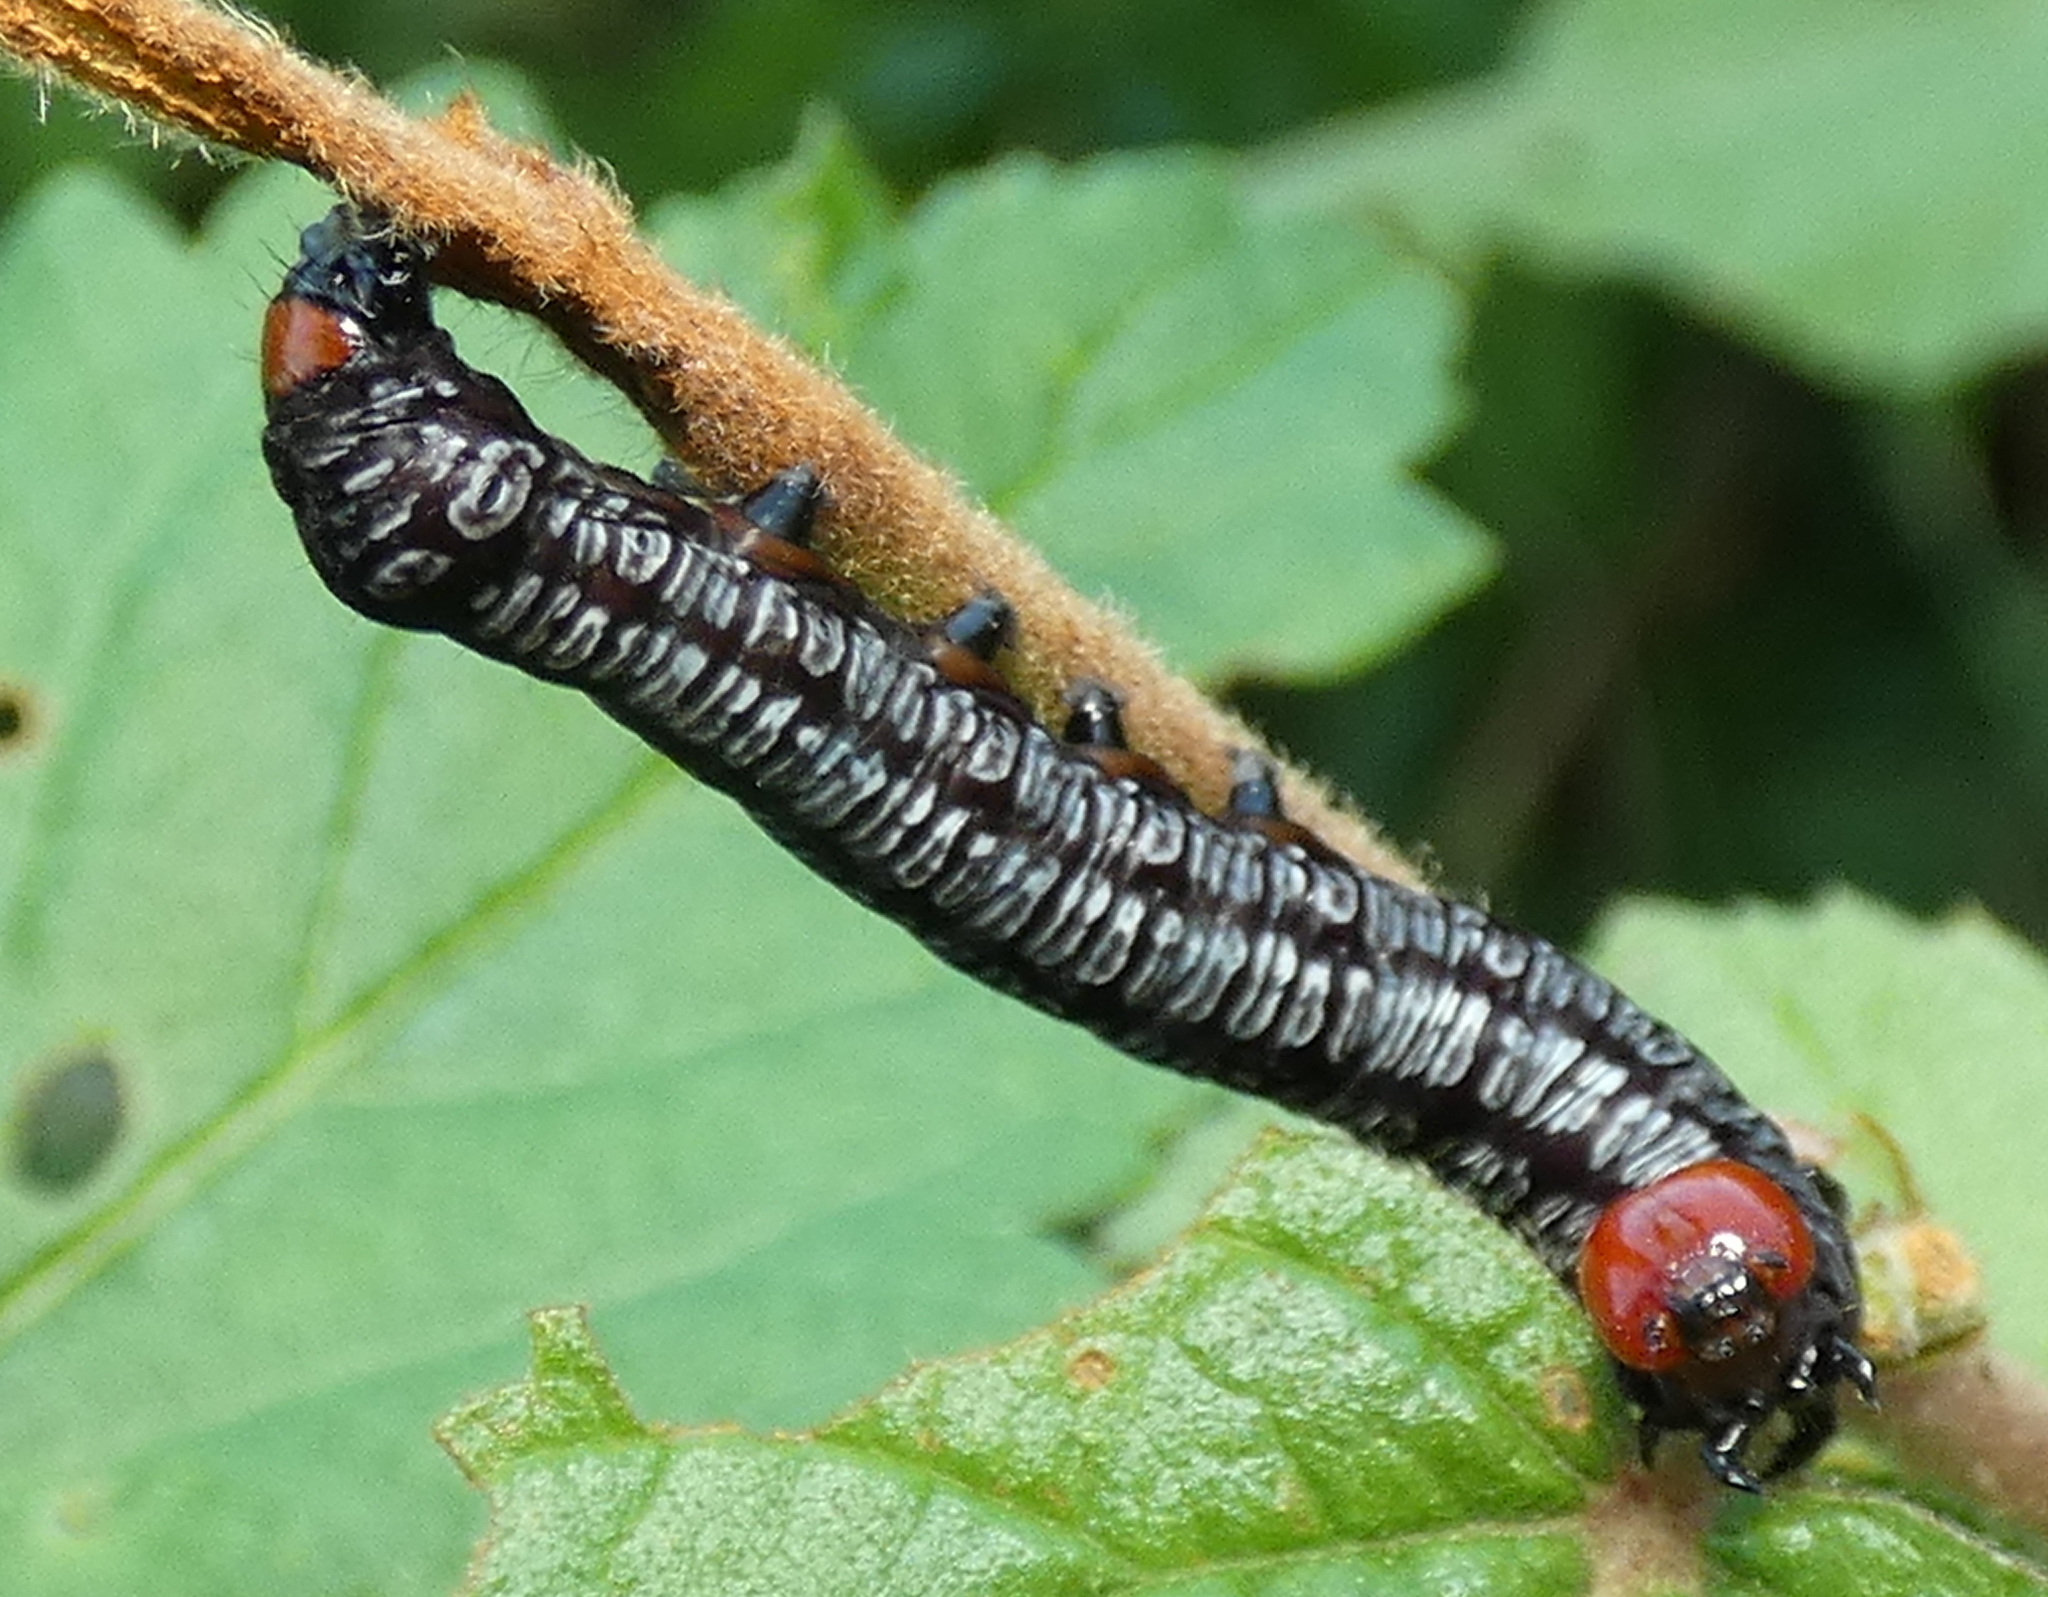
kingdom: Animalia
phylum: Arthropoda
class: Insecta
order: Lepidoptera
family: Erebidae
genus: Diphthera
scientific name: Diphthera festiva
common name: Hieroglyphic moth
